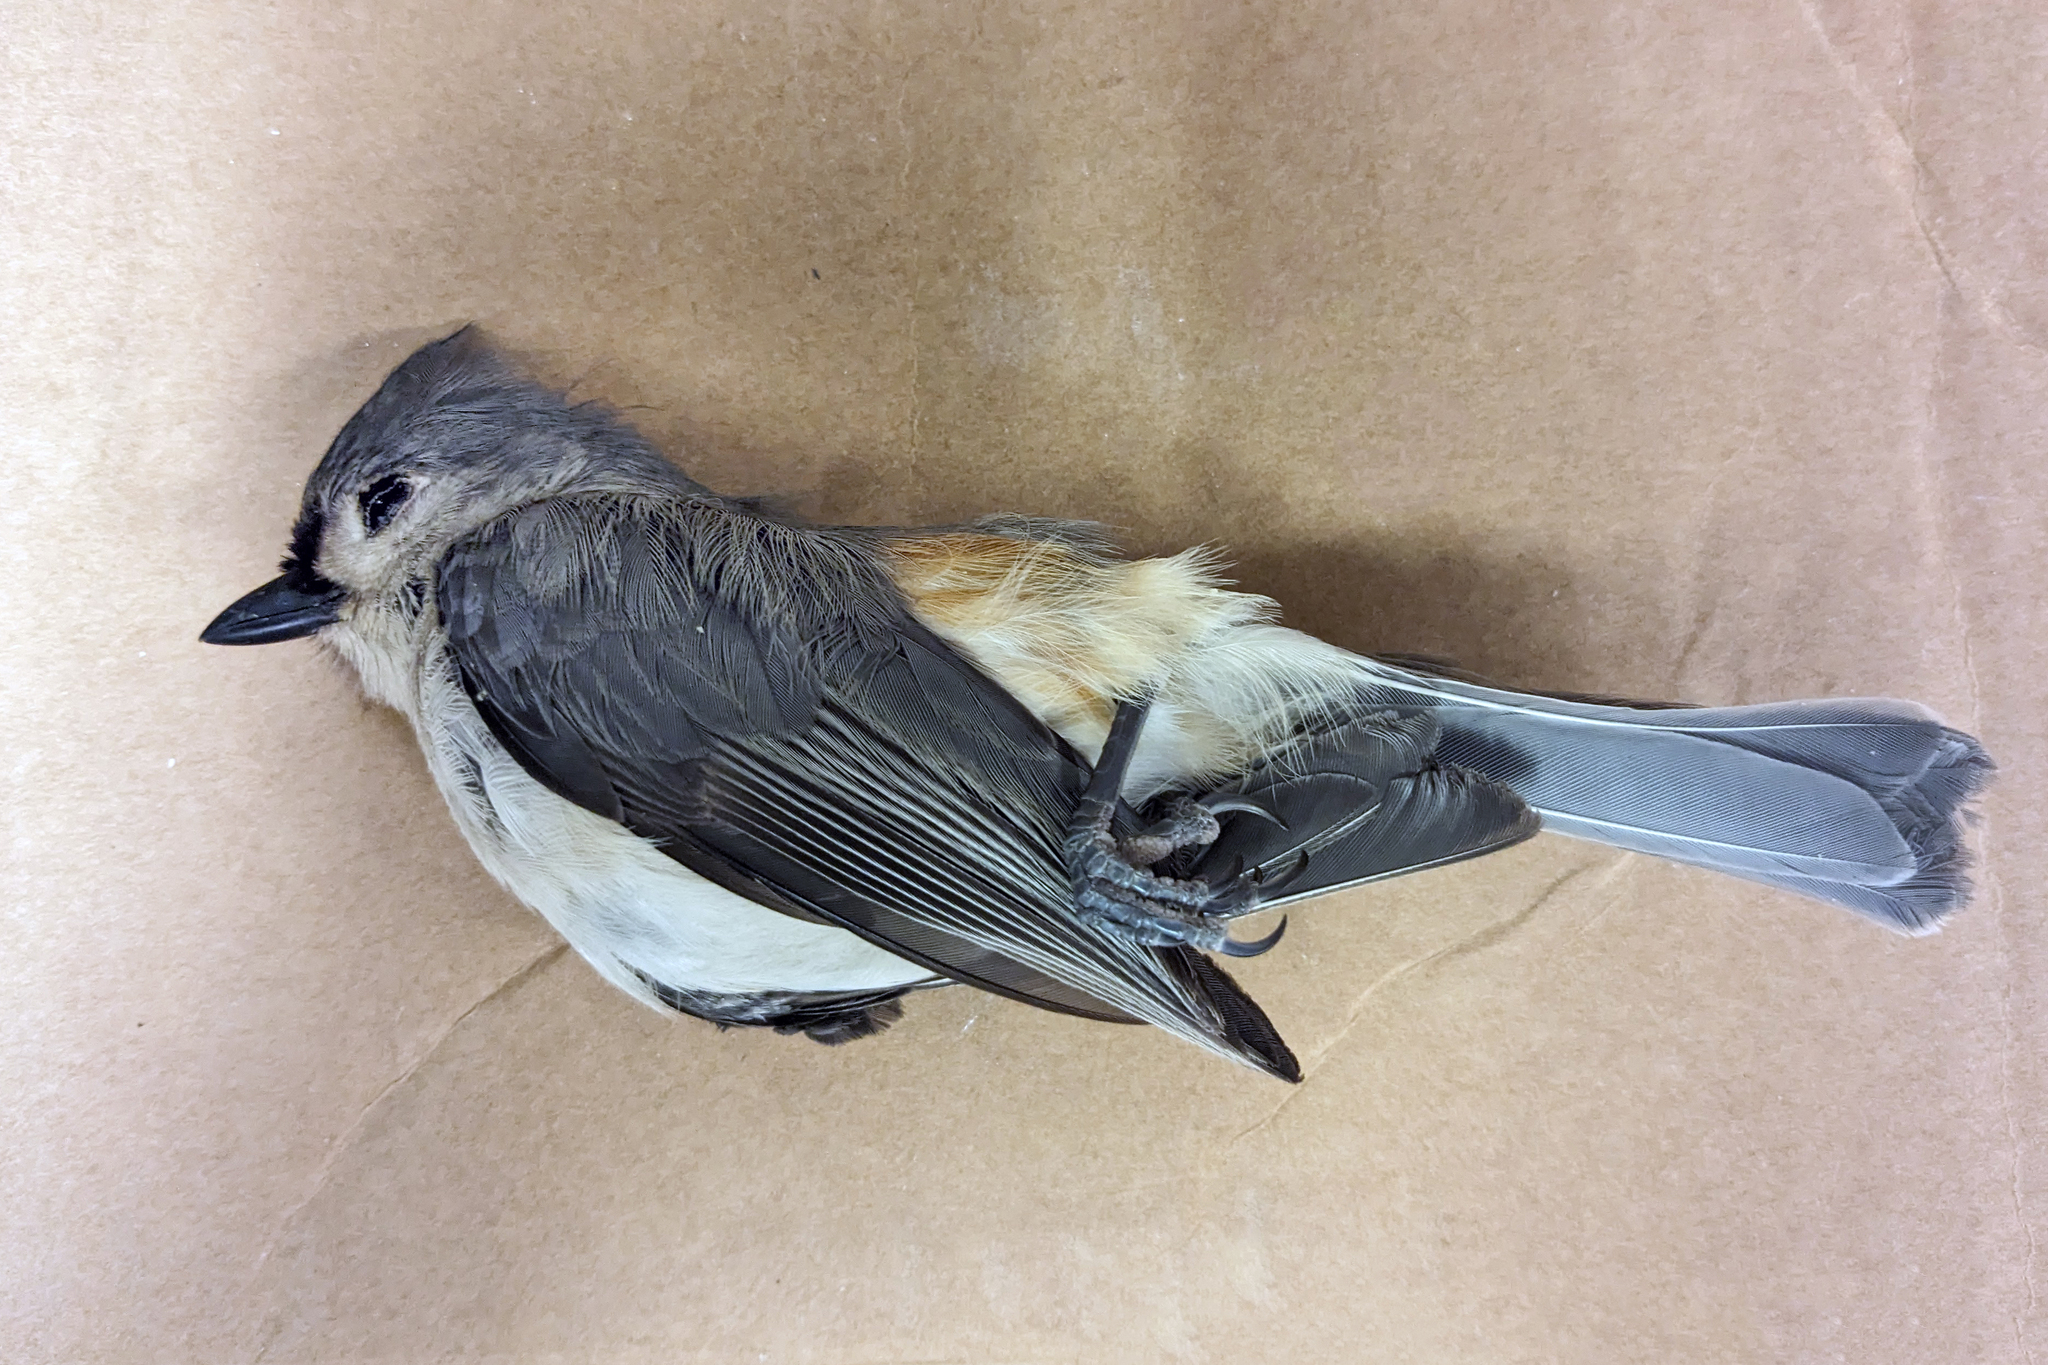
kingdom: Animalia
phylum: Chordata
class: Aves
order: Passeriformes
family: Paridae
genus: Baeolophus
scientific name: Baeolophus bicolor
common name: Tufted titmouse
